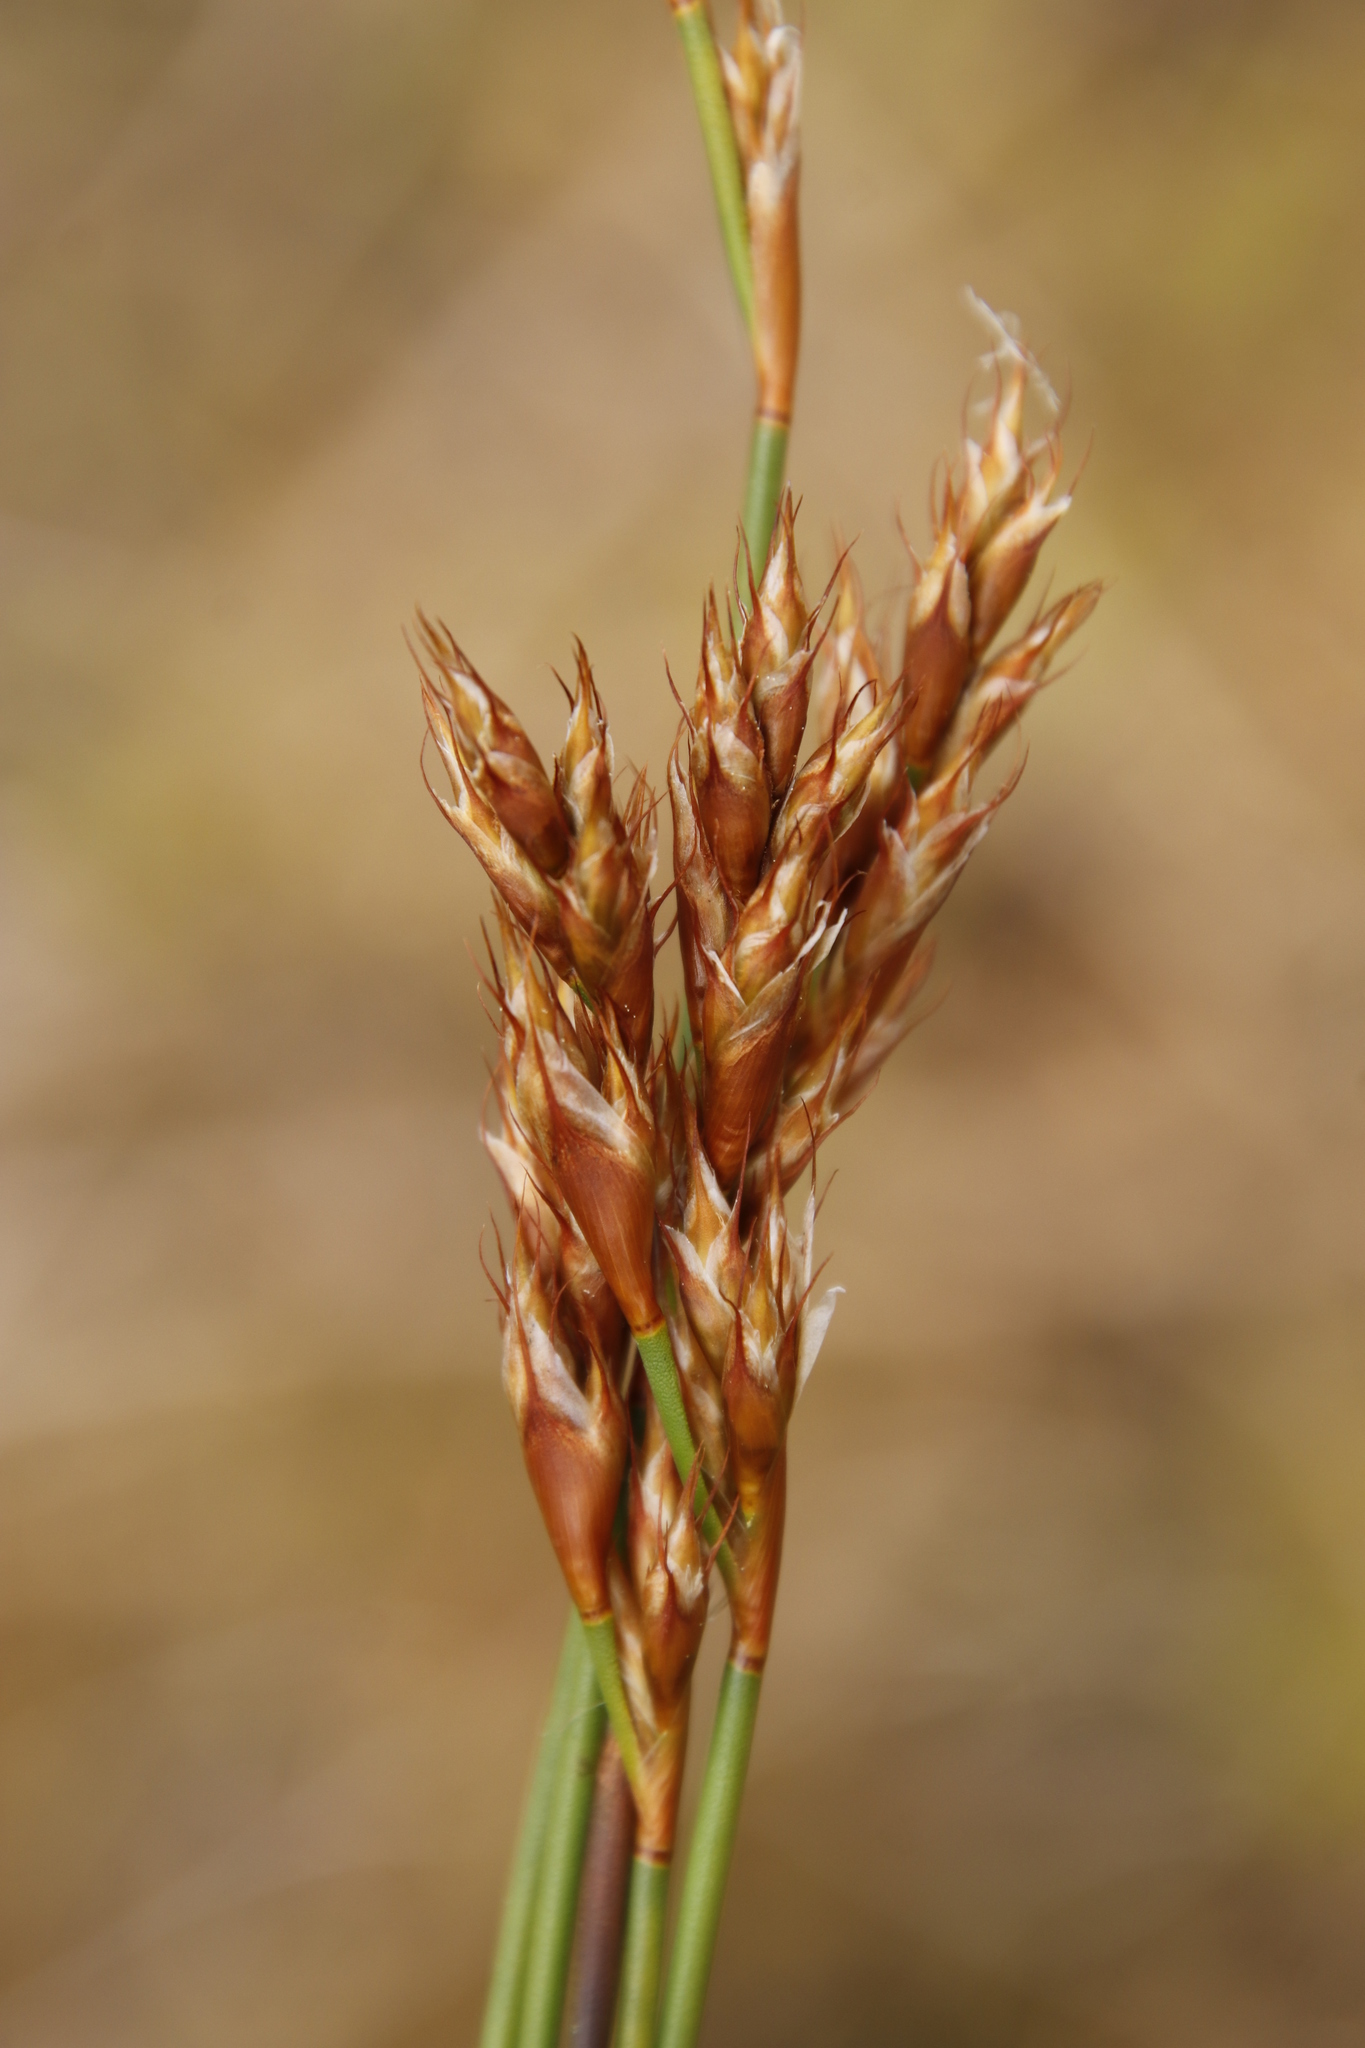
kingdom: Plantae
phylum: Tracheophyta
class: Liliopsida
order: Poales
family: Restionaceae
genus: Restio
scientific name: Restio capensis
